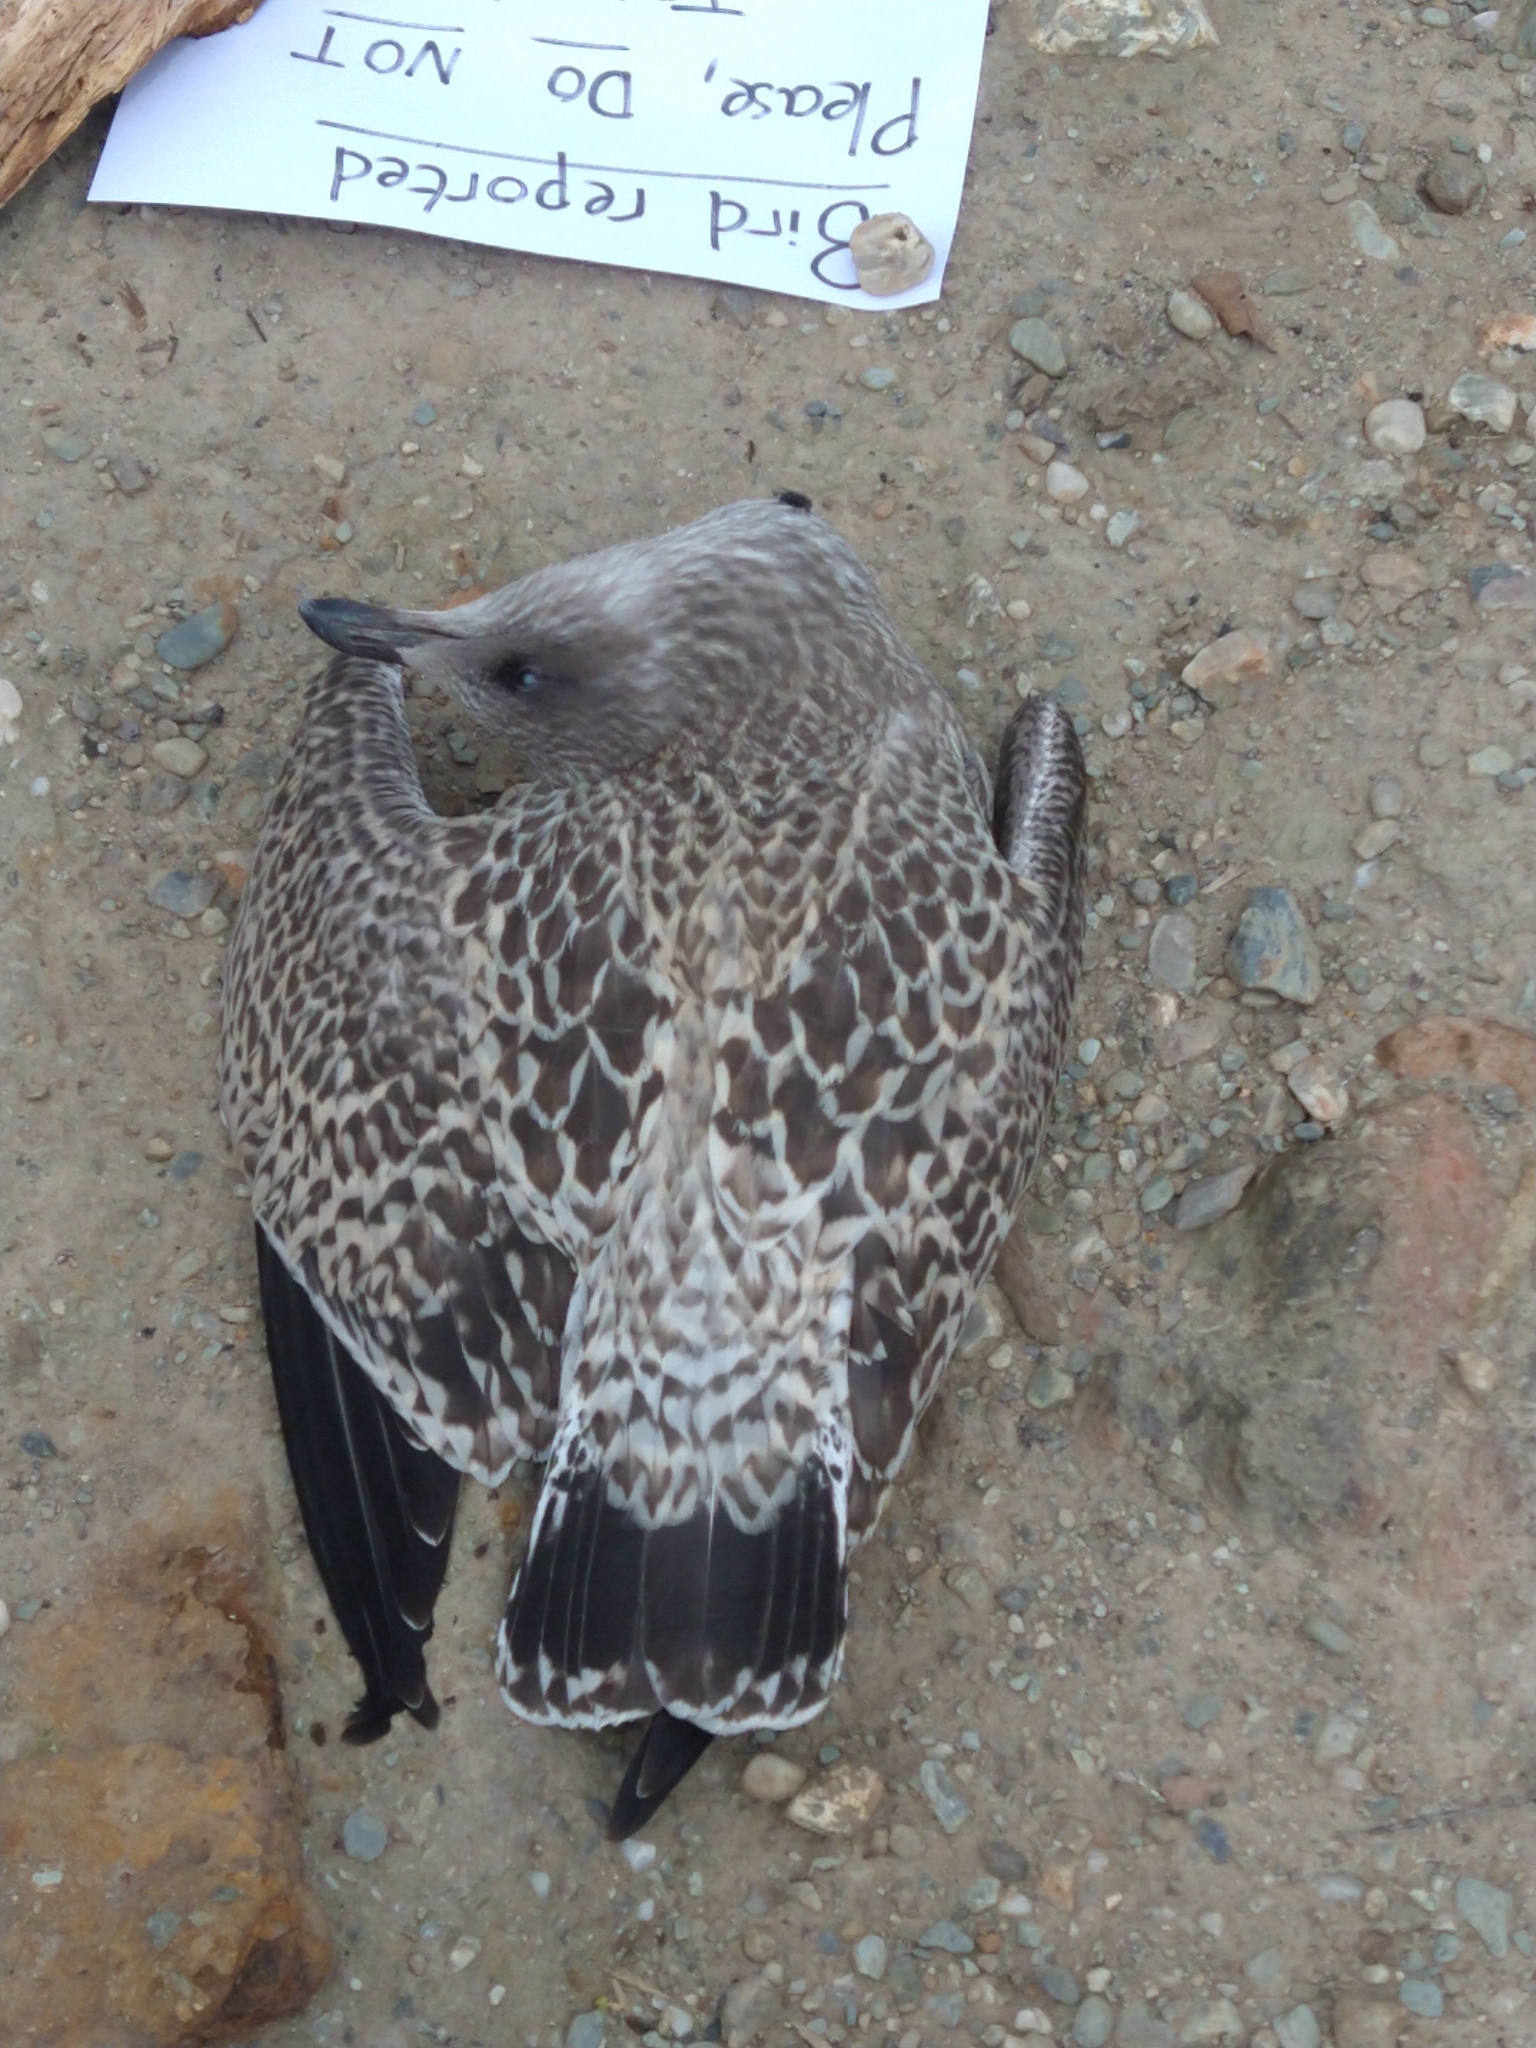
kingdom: Animalia
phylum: Chordata
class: Aves
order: Charadriiformes
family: Laridae
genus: Larus
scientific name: Larus argentatus
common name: Herring gull
